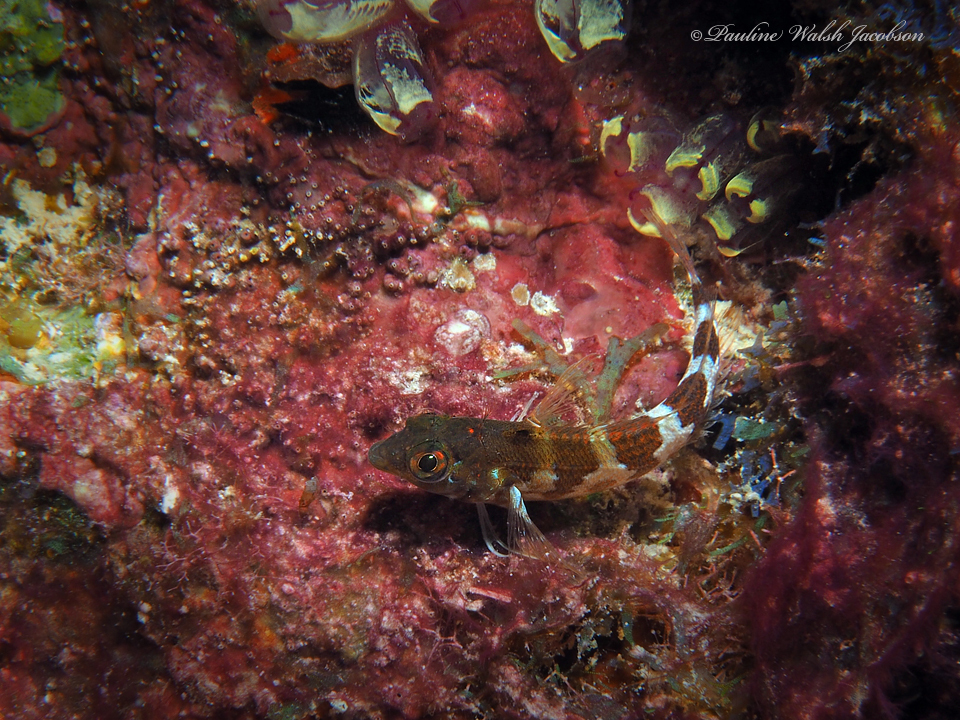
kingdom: Animalia
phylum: Chordata
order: Perciformes
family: Labrisomidae
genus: Malacoctenus
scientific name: Malacoctenus triangulatus
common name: Saddled blenny
